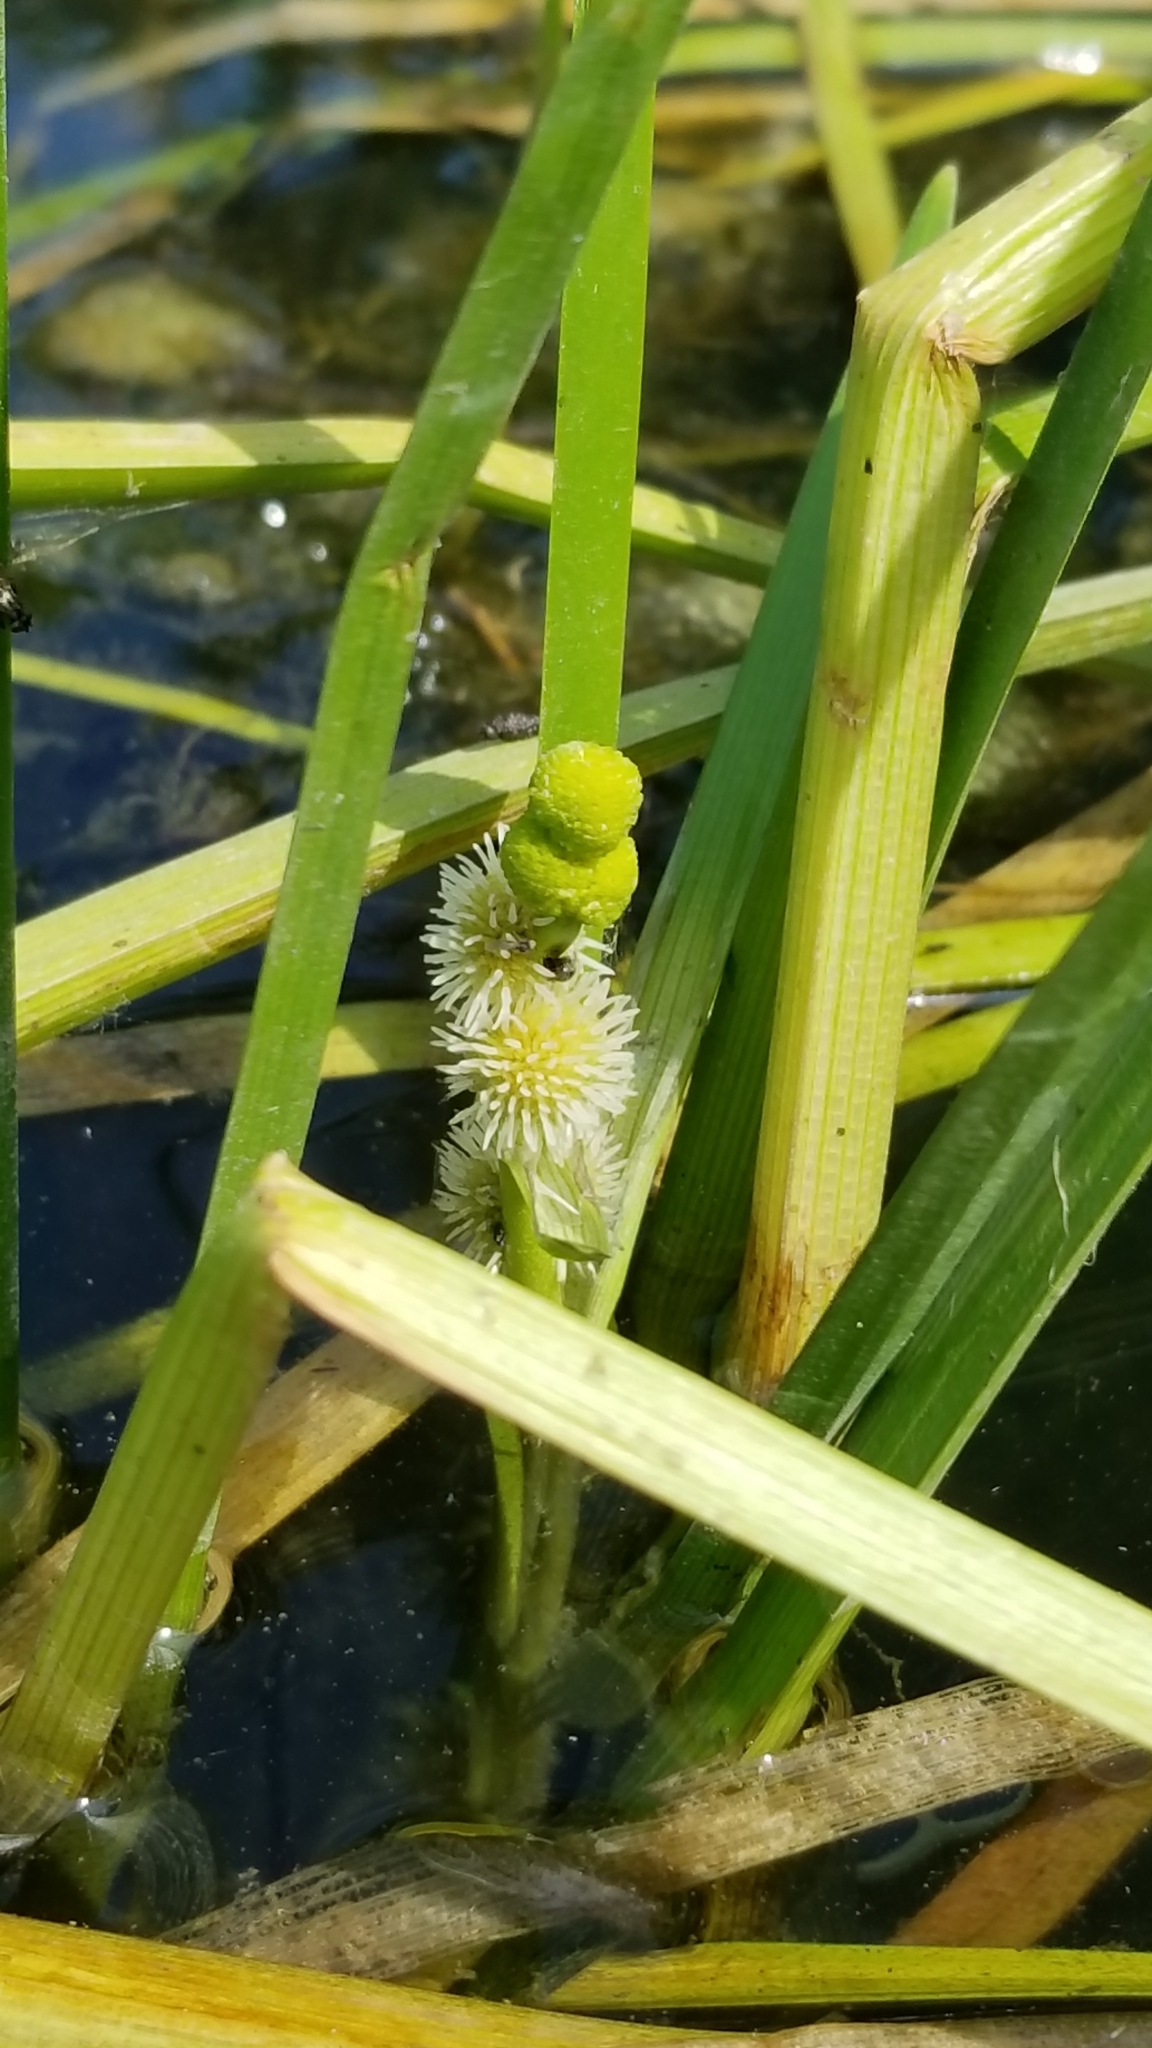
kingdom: Plantae
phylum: Tracheophyta
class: Liliopsida
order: Poales
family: Typhaceae
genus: Sparganium
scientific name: Sparganium emersum
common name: Unbranched bur-reed
